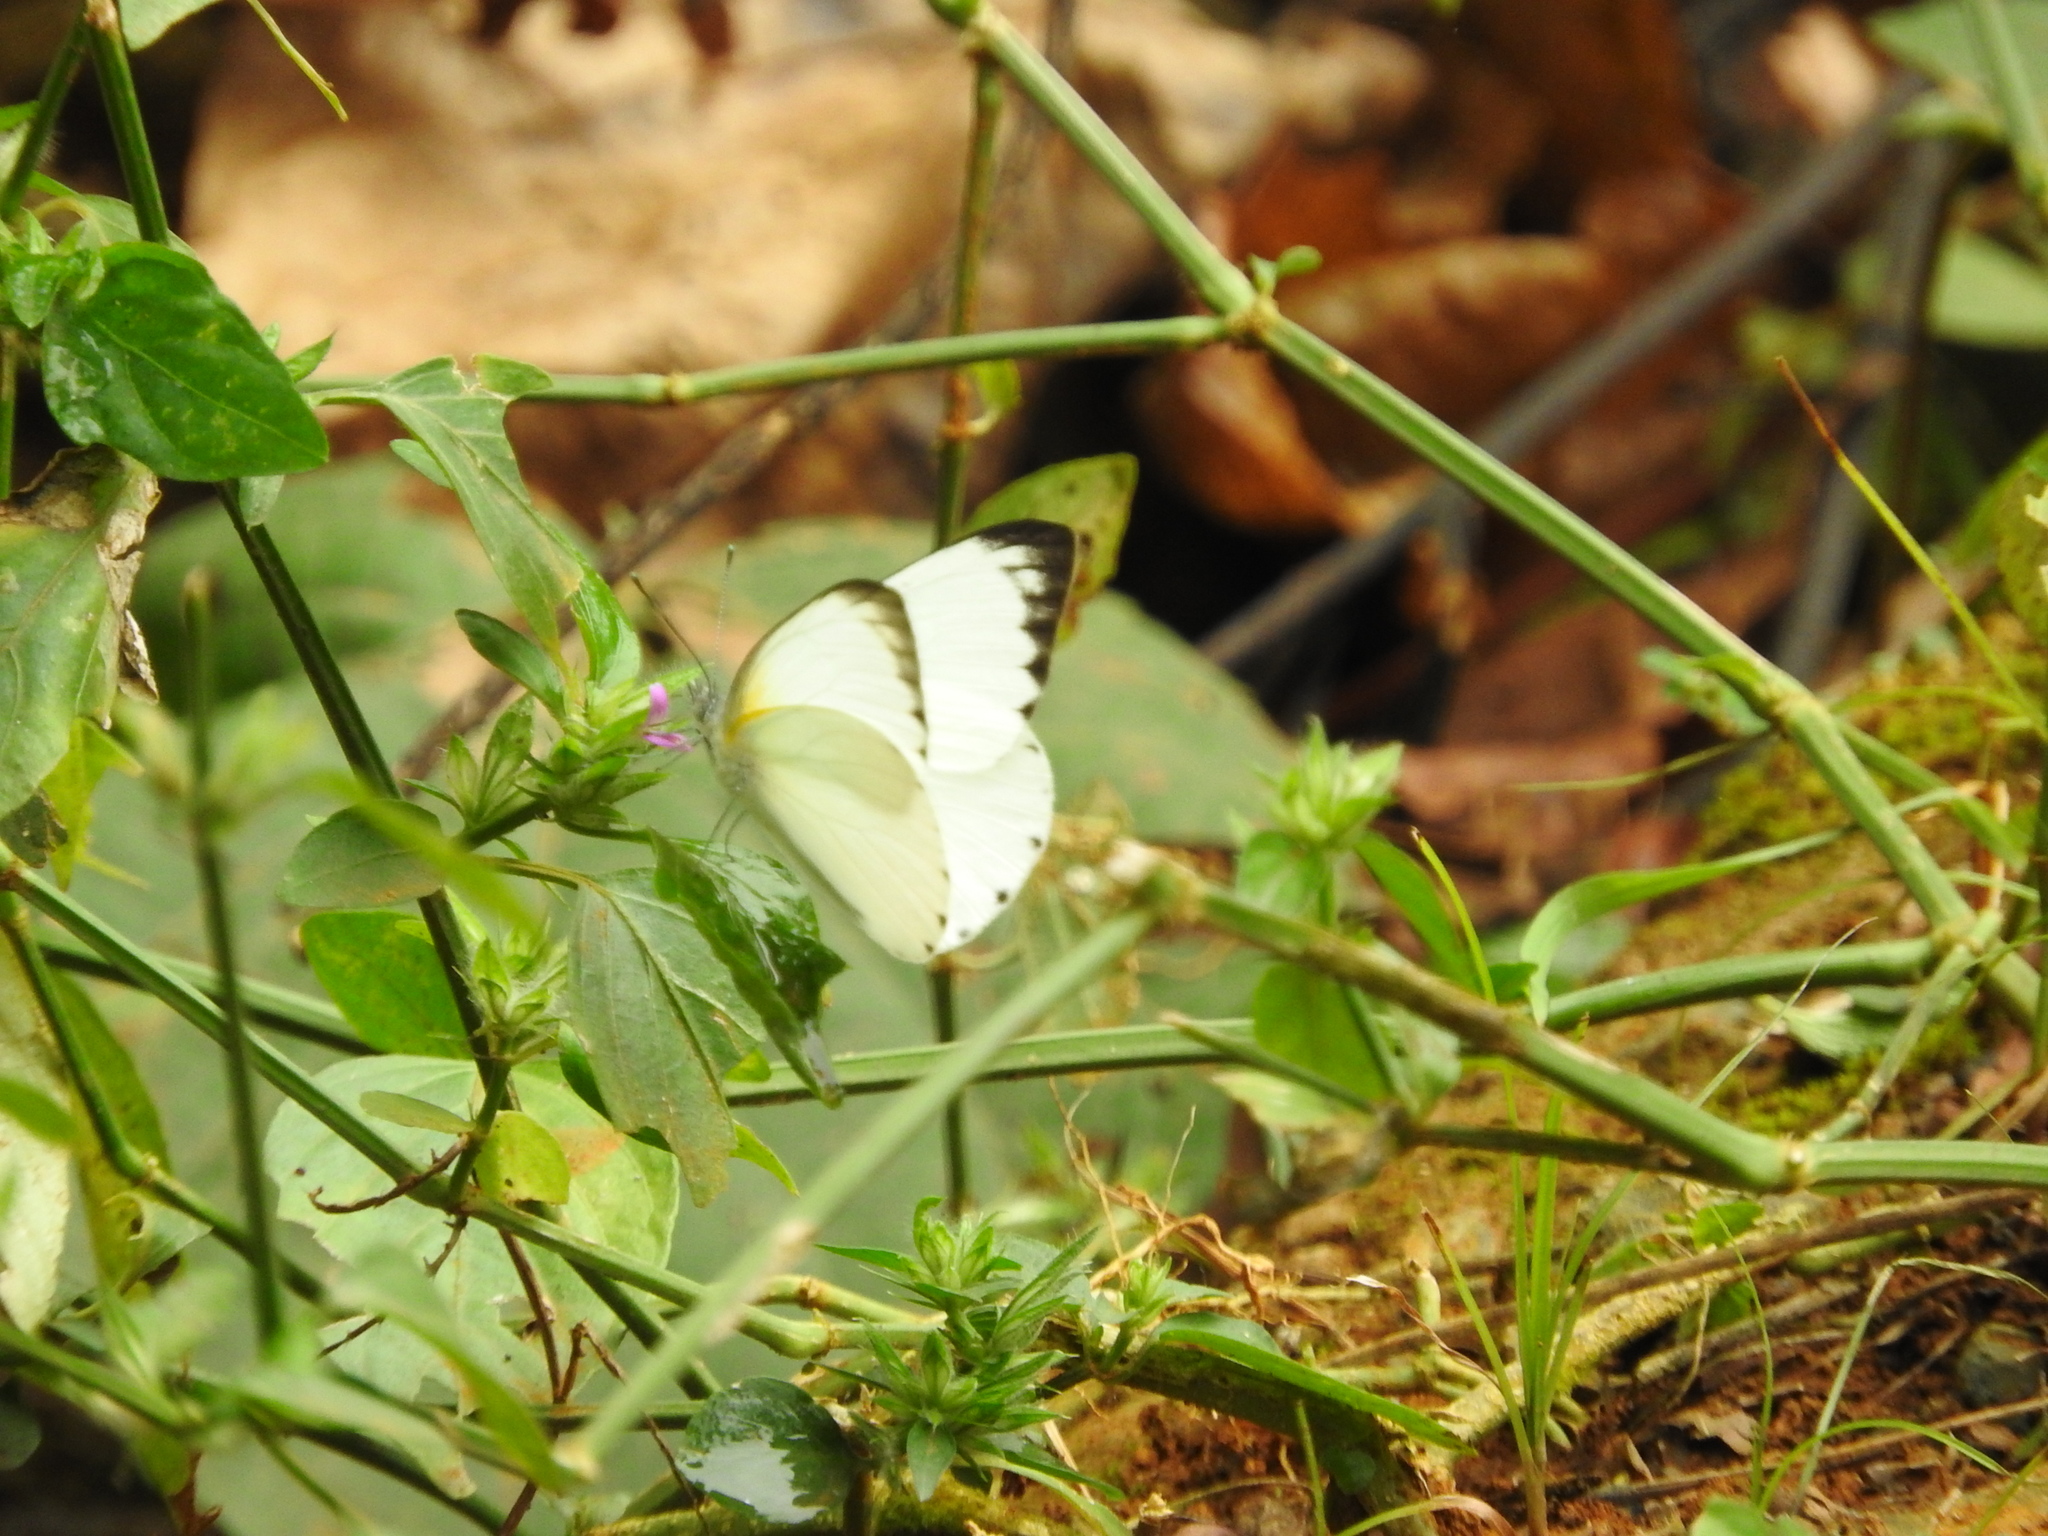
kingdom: Animalia
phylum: Arthropoda
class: Insecta
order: Lepidoptera
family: Pieridae
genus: Glutophrissa
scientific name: Glutophrissa epaphia
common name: African albatross
